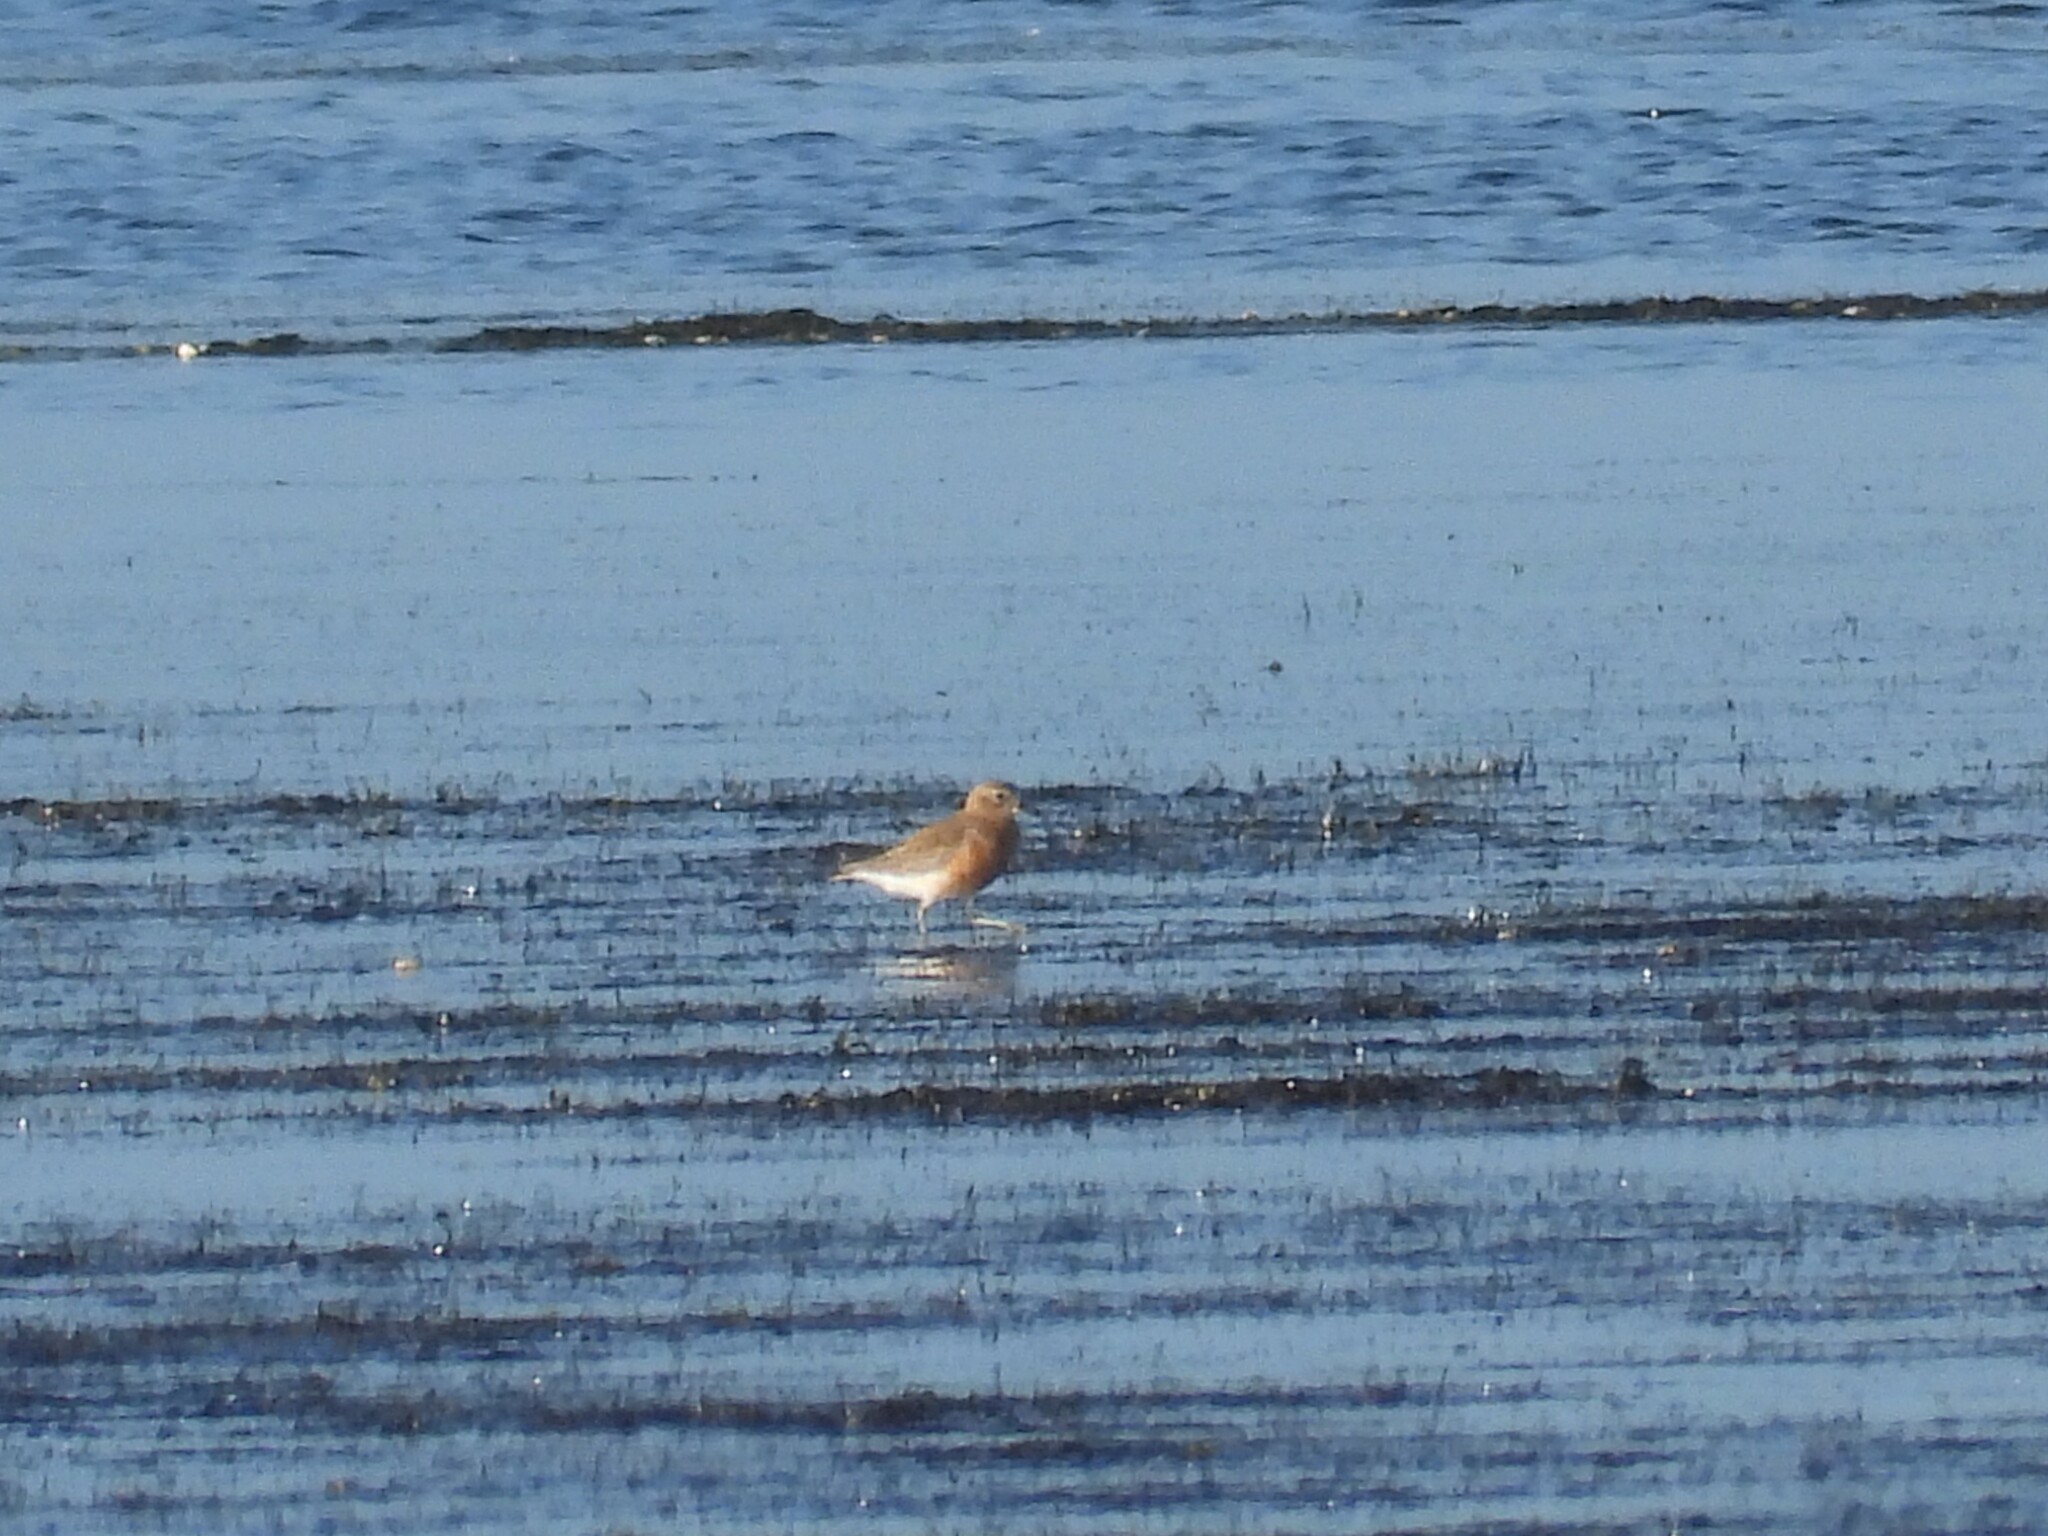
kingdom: Animalia
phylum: Chordata
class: Aves
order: Charadriiformes
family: Charadriidae
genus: Anarhynchus
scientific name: Anarhynchus
